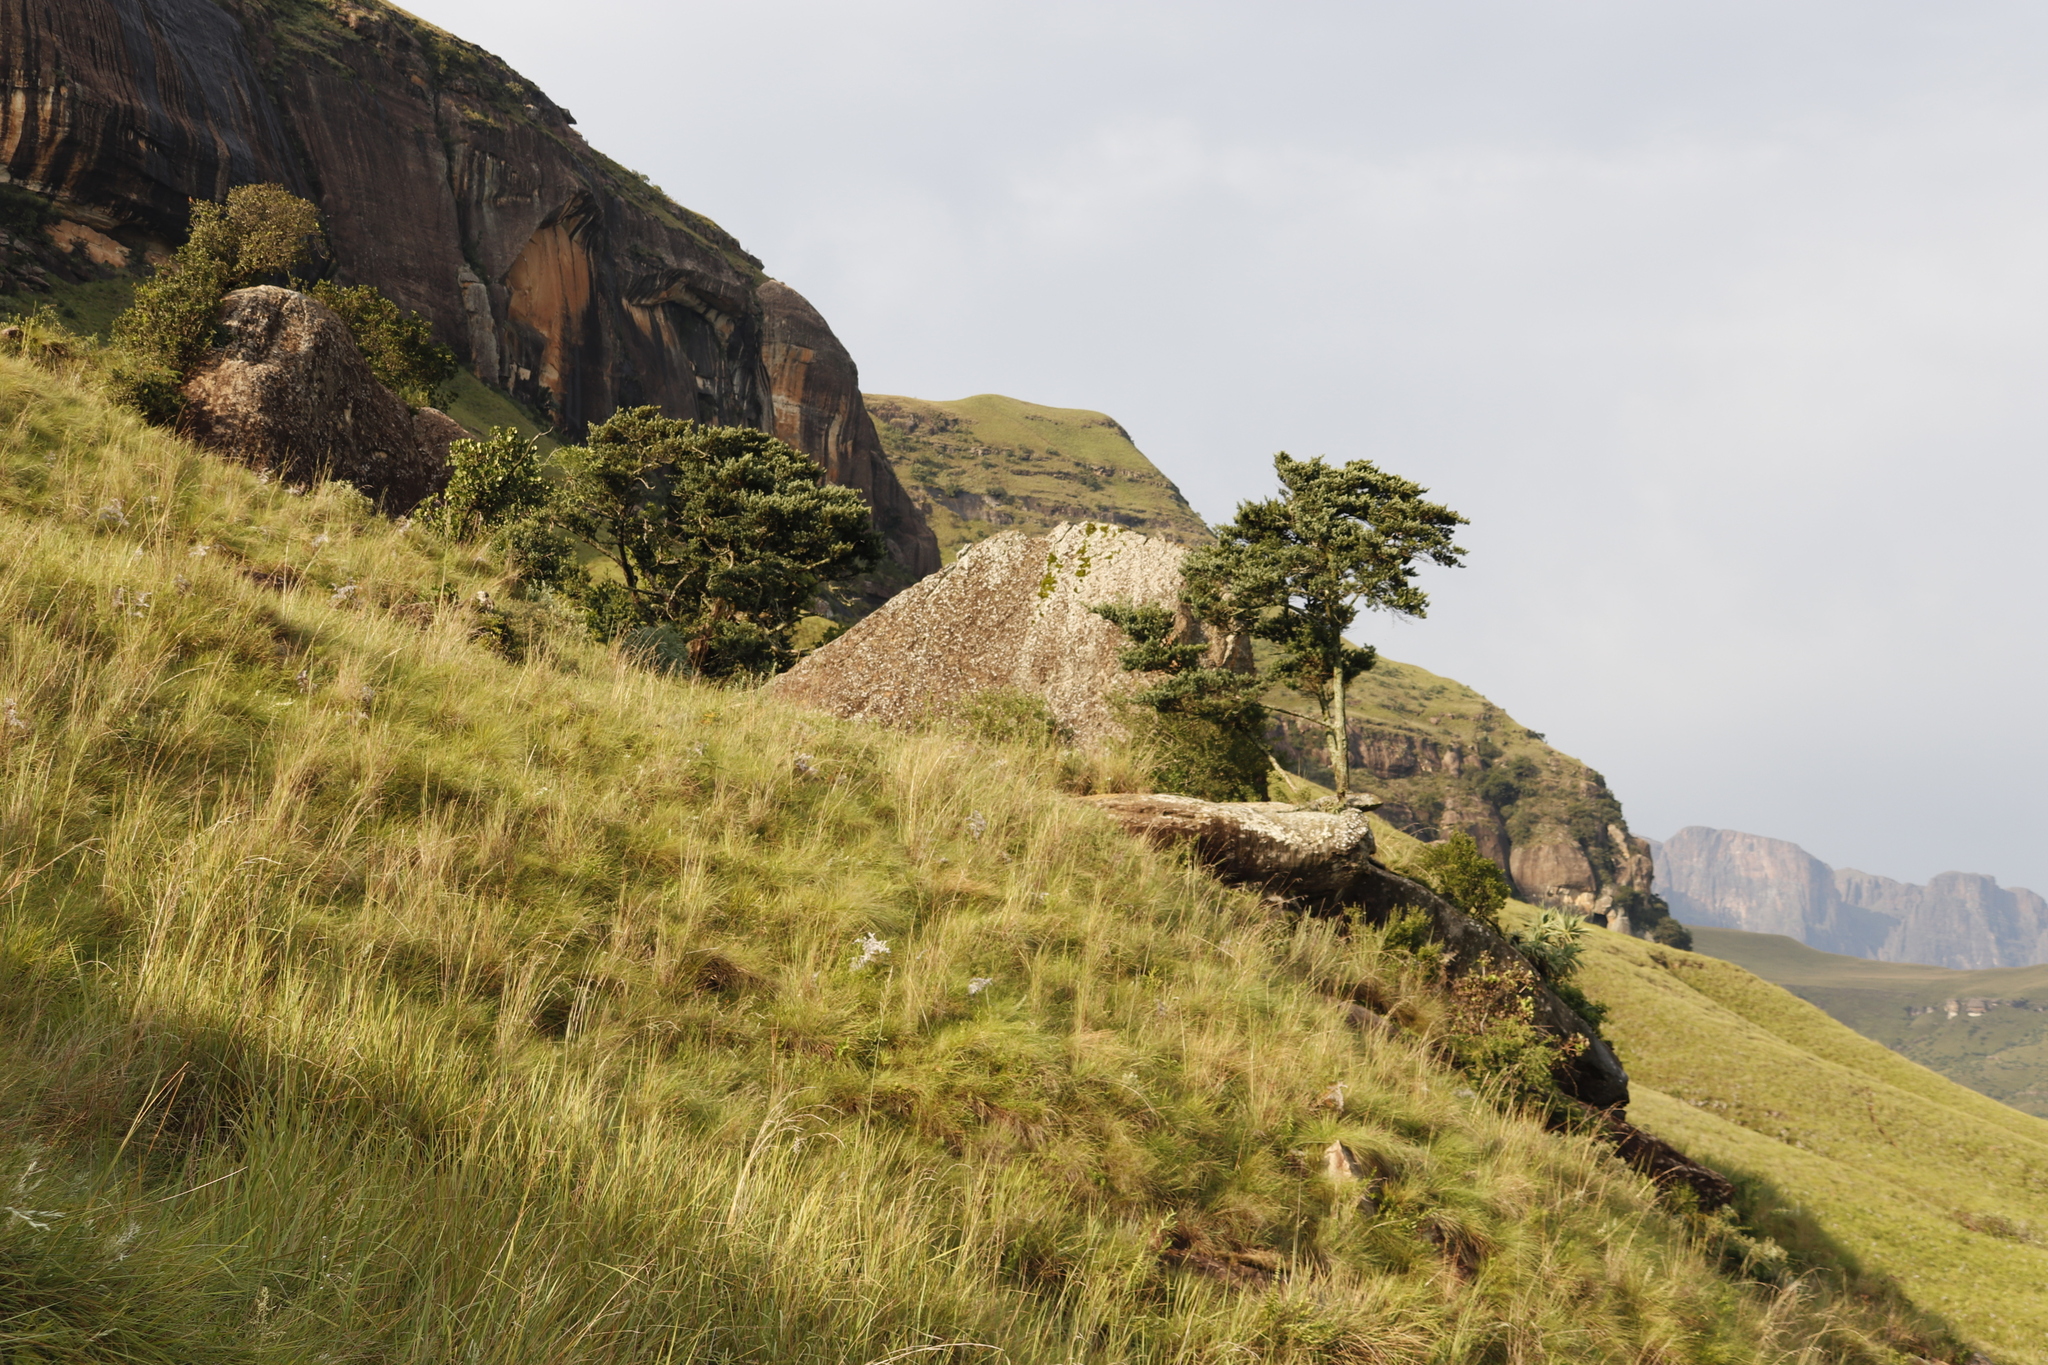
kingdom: Plantae
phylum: Tracheophyta
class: Pinopsida
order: Pinales
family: Podocarpaceae
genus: Podocarpus
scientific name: Podocarpus latifolius
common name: True yellowwood
